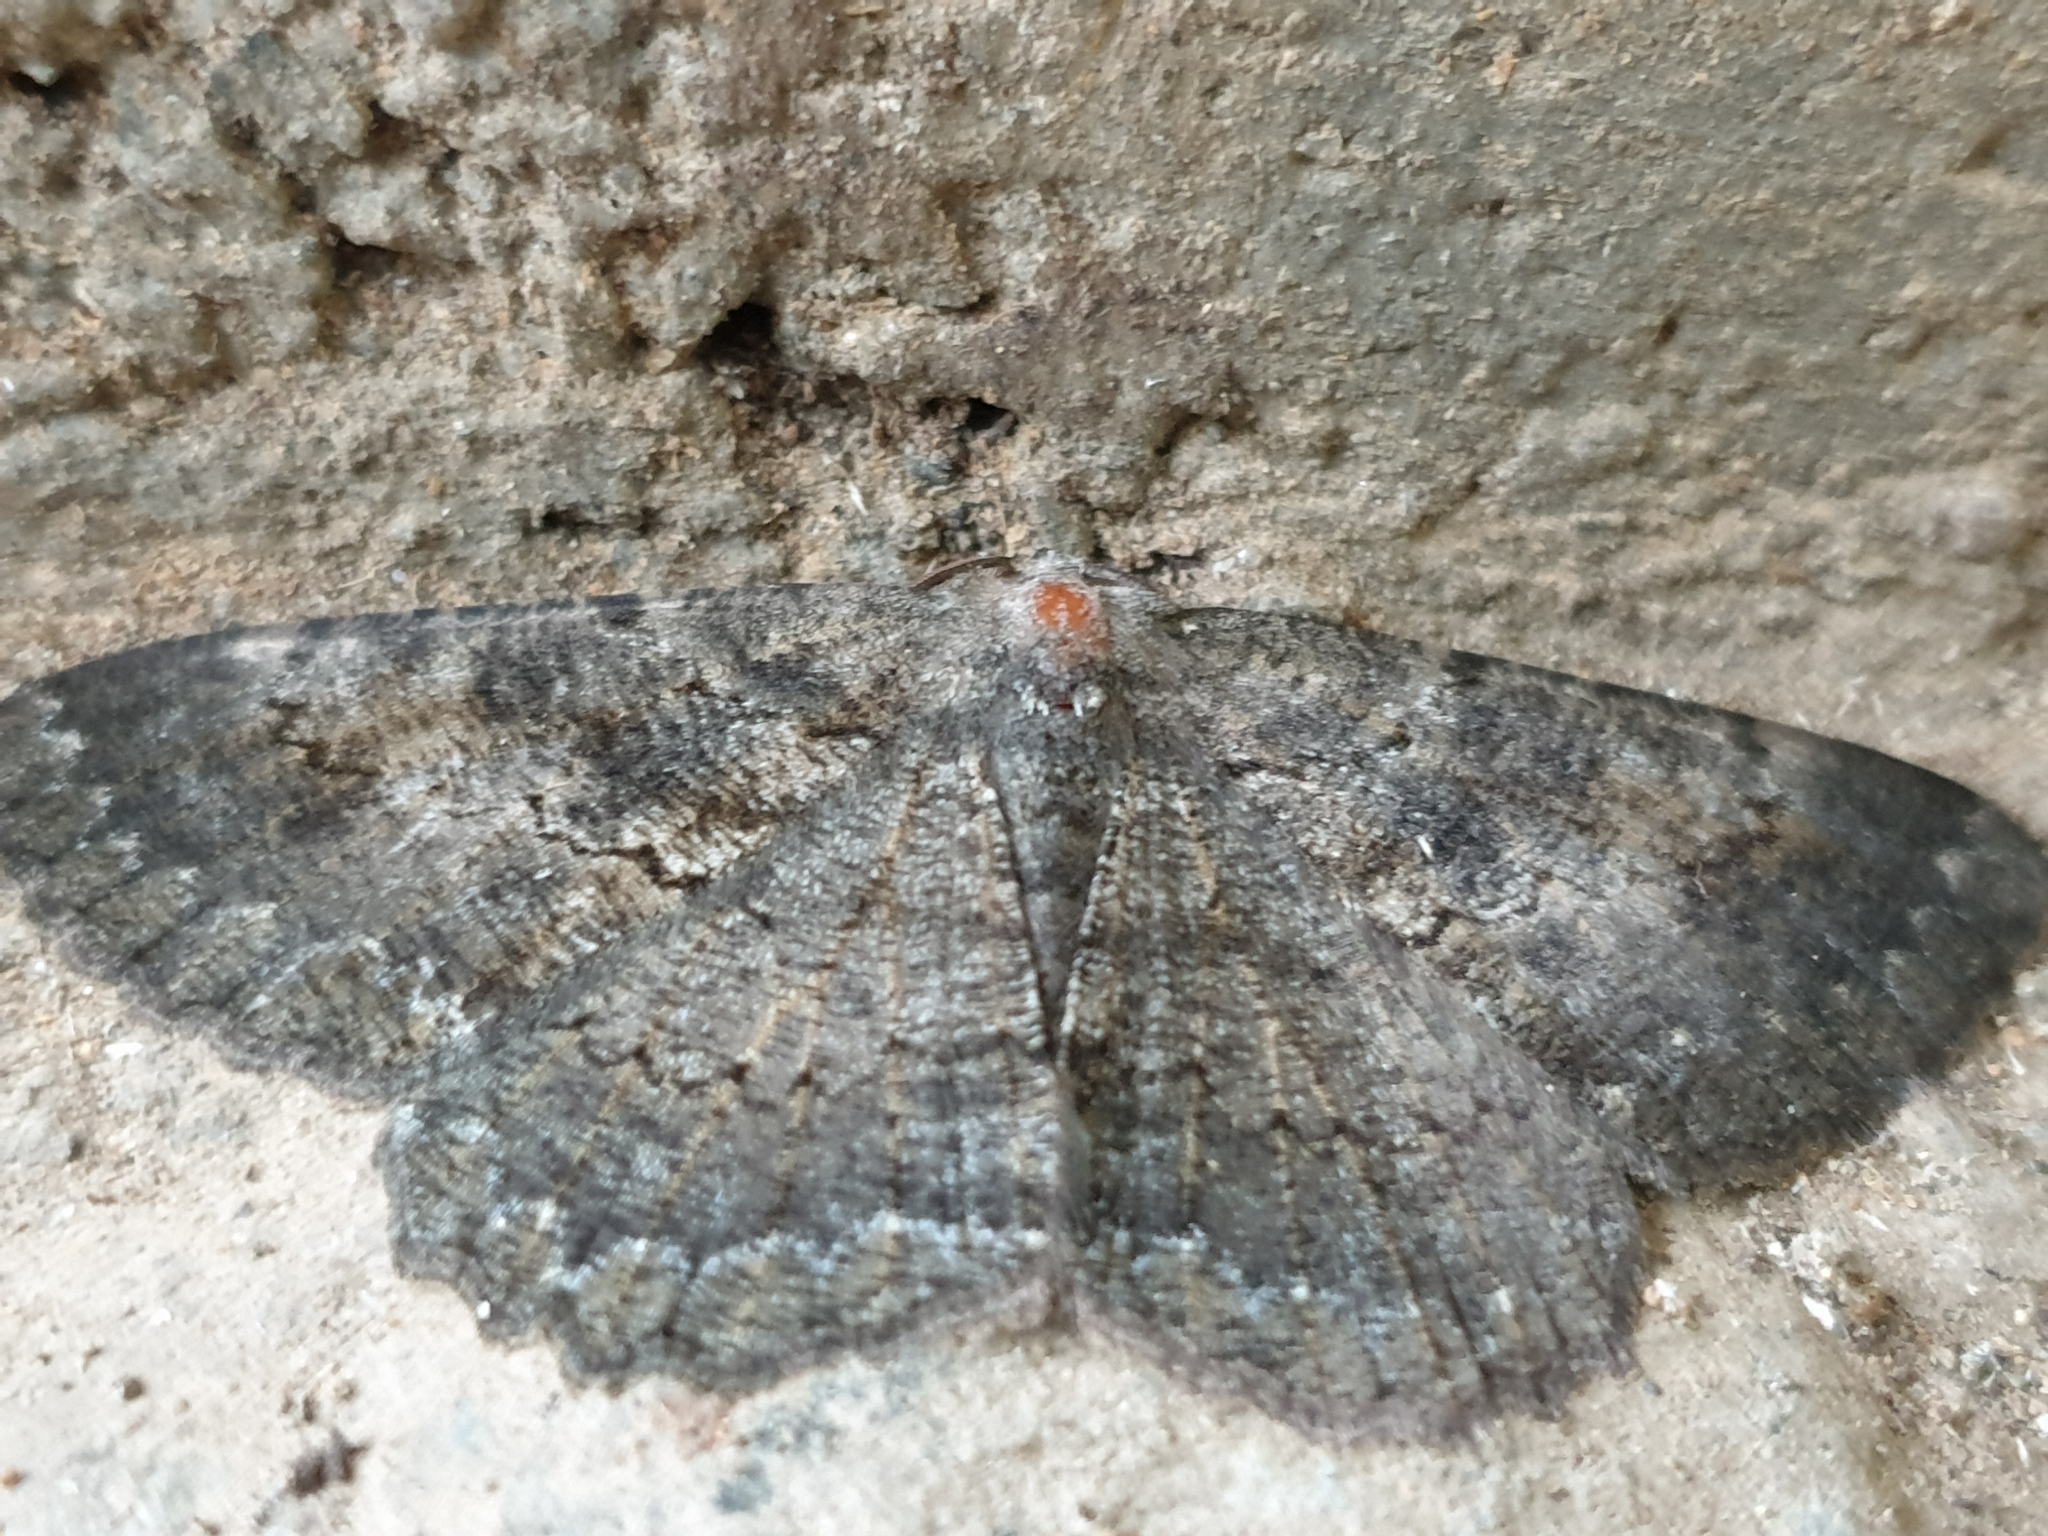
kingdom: Animalia
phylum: Arthropoda
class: Insecta
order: Lepidoptera
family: Geometridae
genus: Ctenognophos
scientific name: Ctenognophos eolaria
